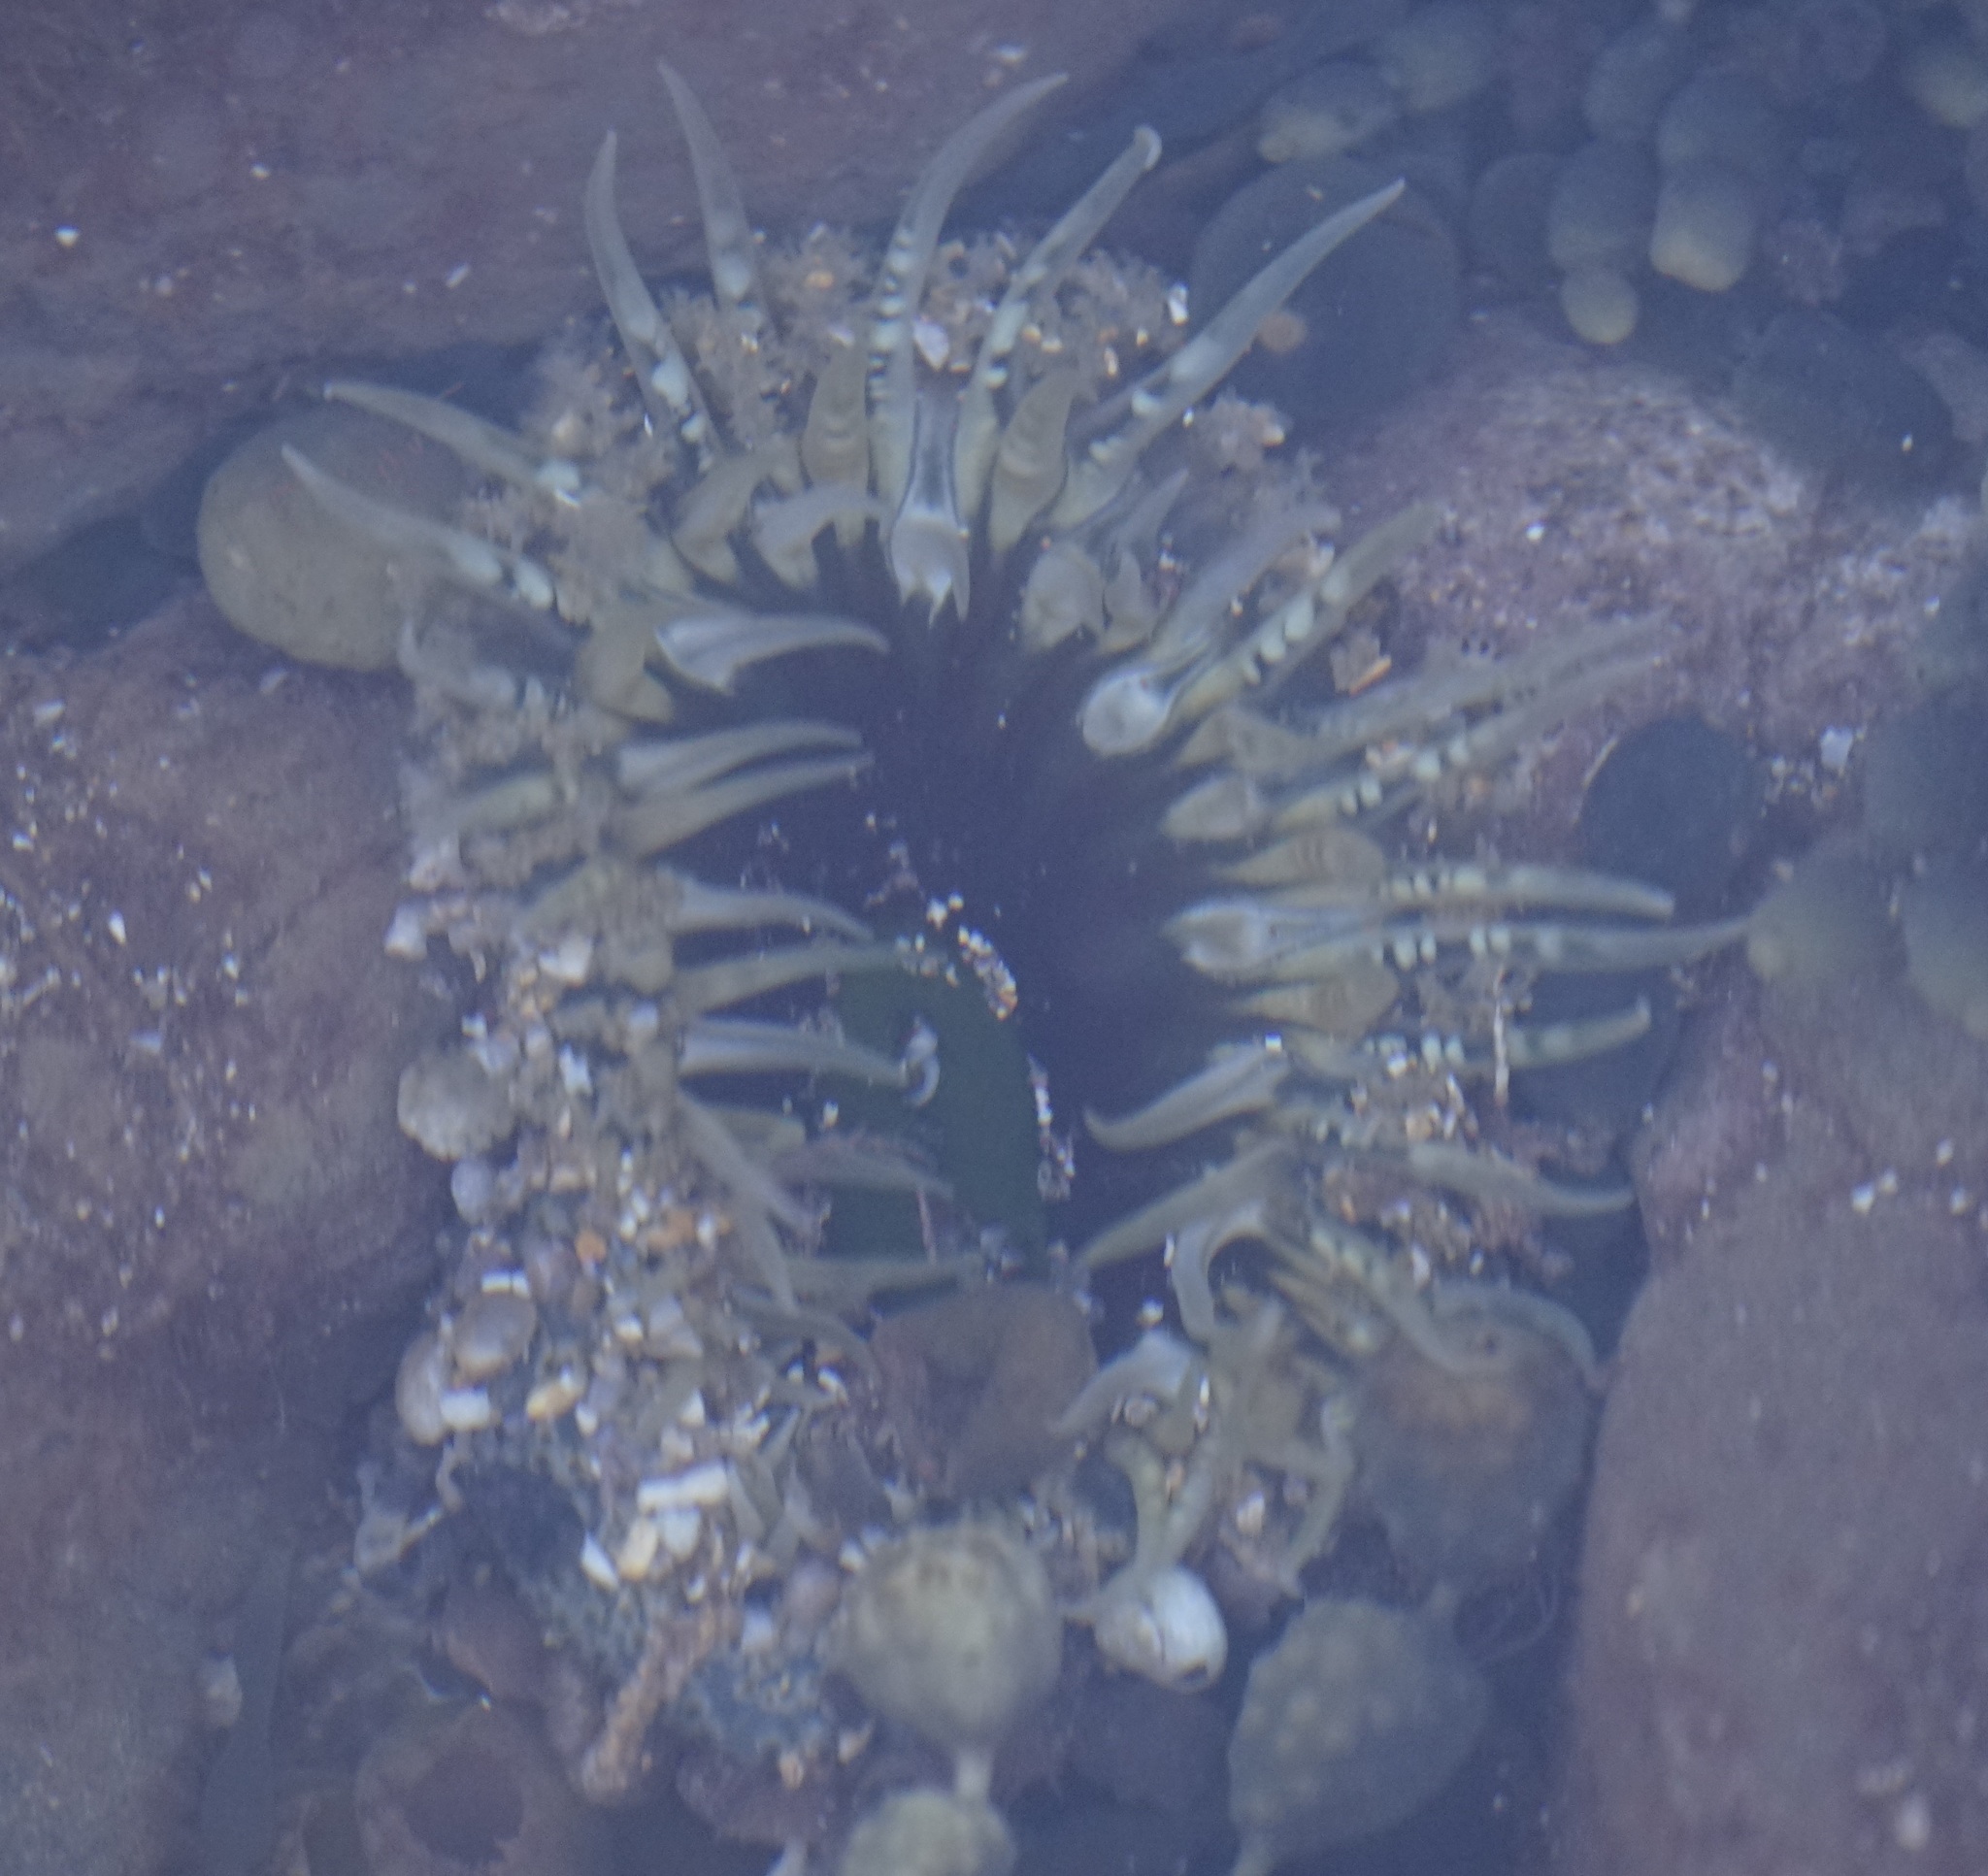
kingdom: Animalia
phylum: Cnidaria
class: Anthozoa
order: Actiniaria
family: Actiniidae
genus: Oulactis
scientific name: Oulactis muscosa
